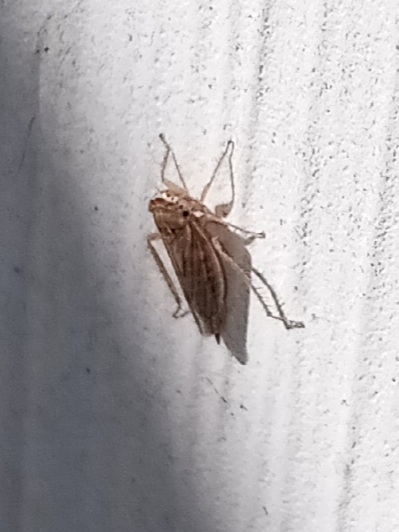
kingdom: Animalia
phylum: Arthropoda
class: Insecta
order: Hemiptera
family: Cicadellidae
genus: Exitianus
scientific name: Exitianus exitiosus
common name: Gray lawn leafhopper
